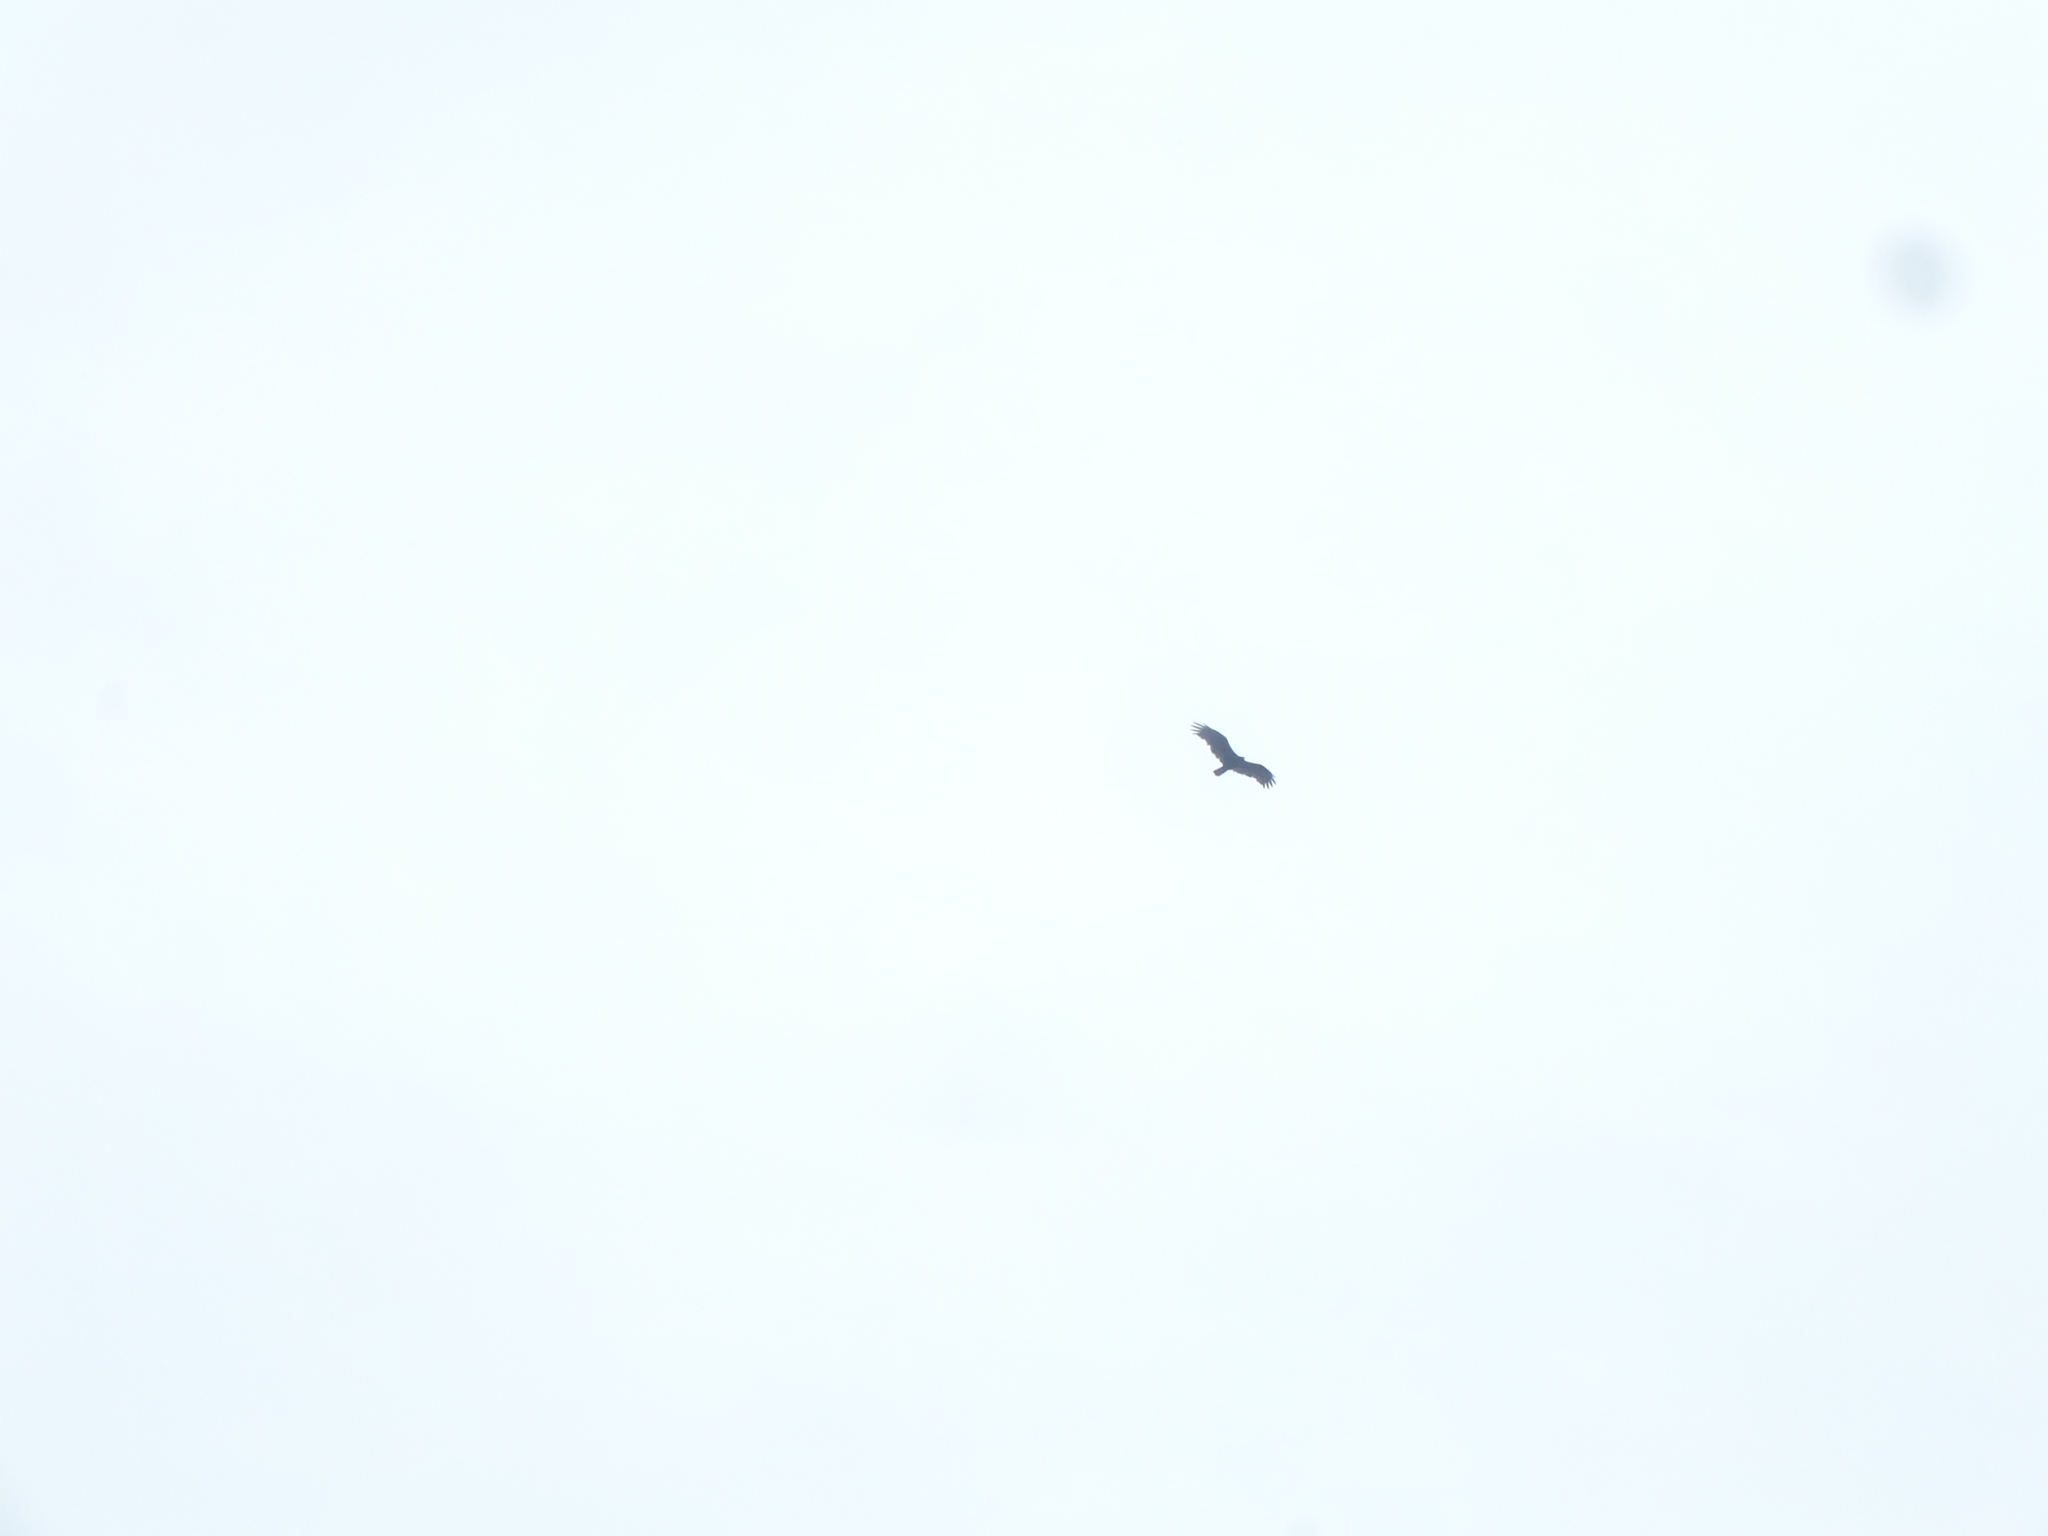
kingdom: Animalia
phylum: Chordata
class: Aves
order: Accipitriformes
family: Cathartidae
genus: Cathartes
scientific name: Cathartes aura
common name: Turkey vulture
